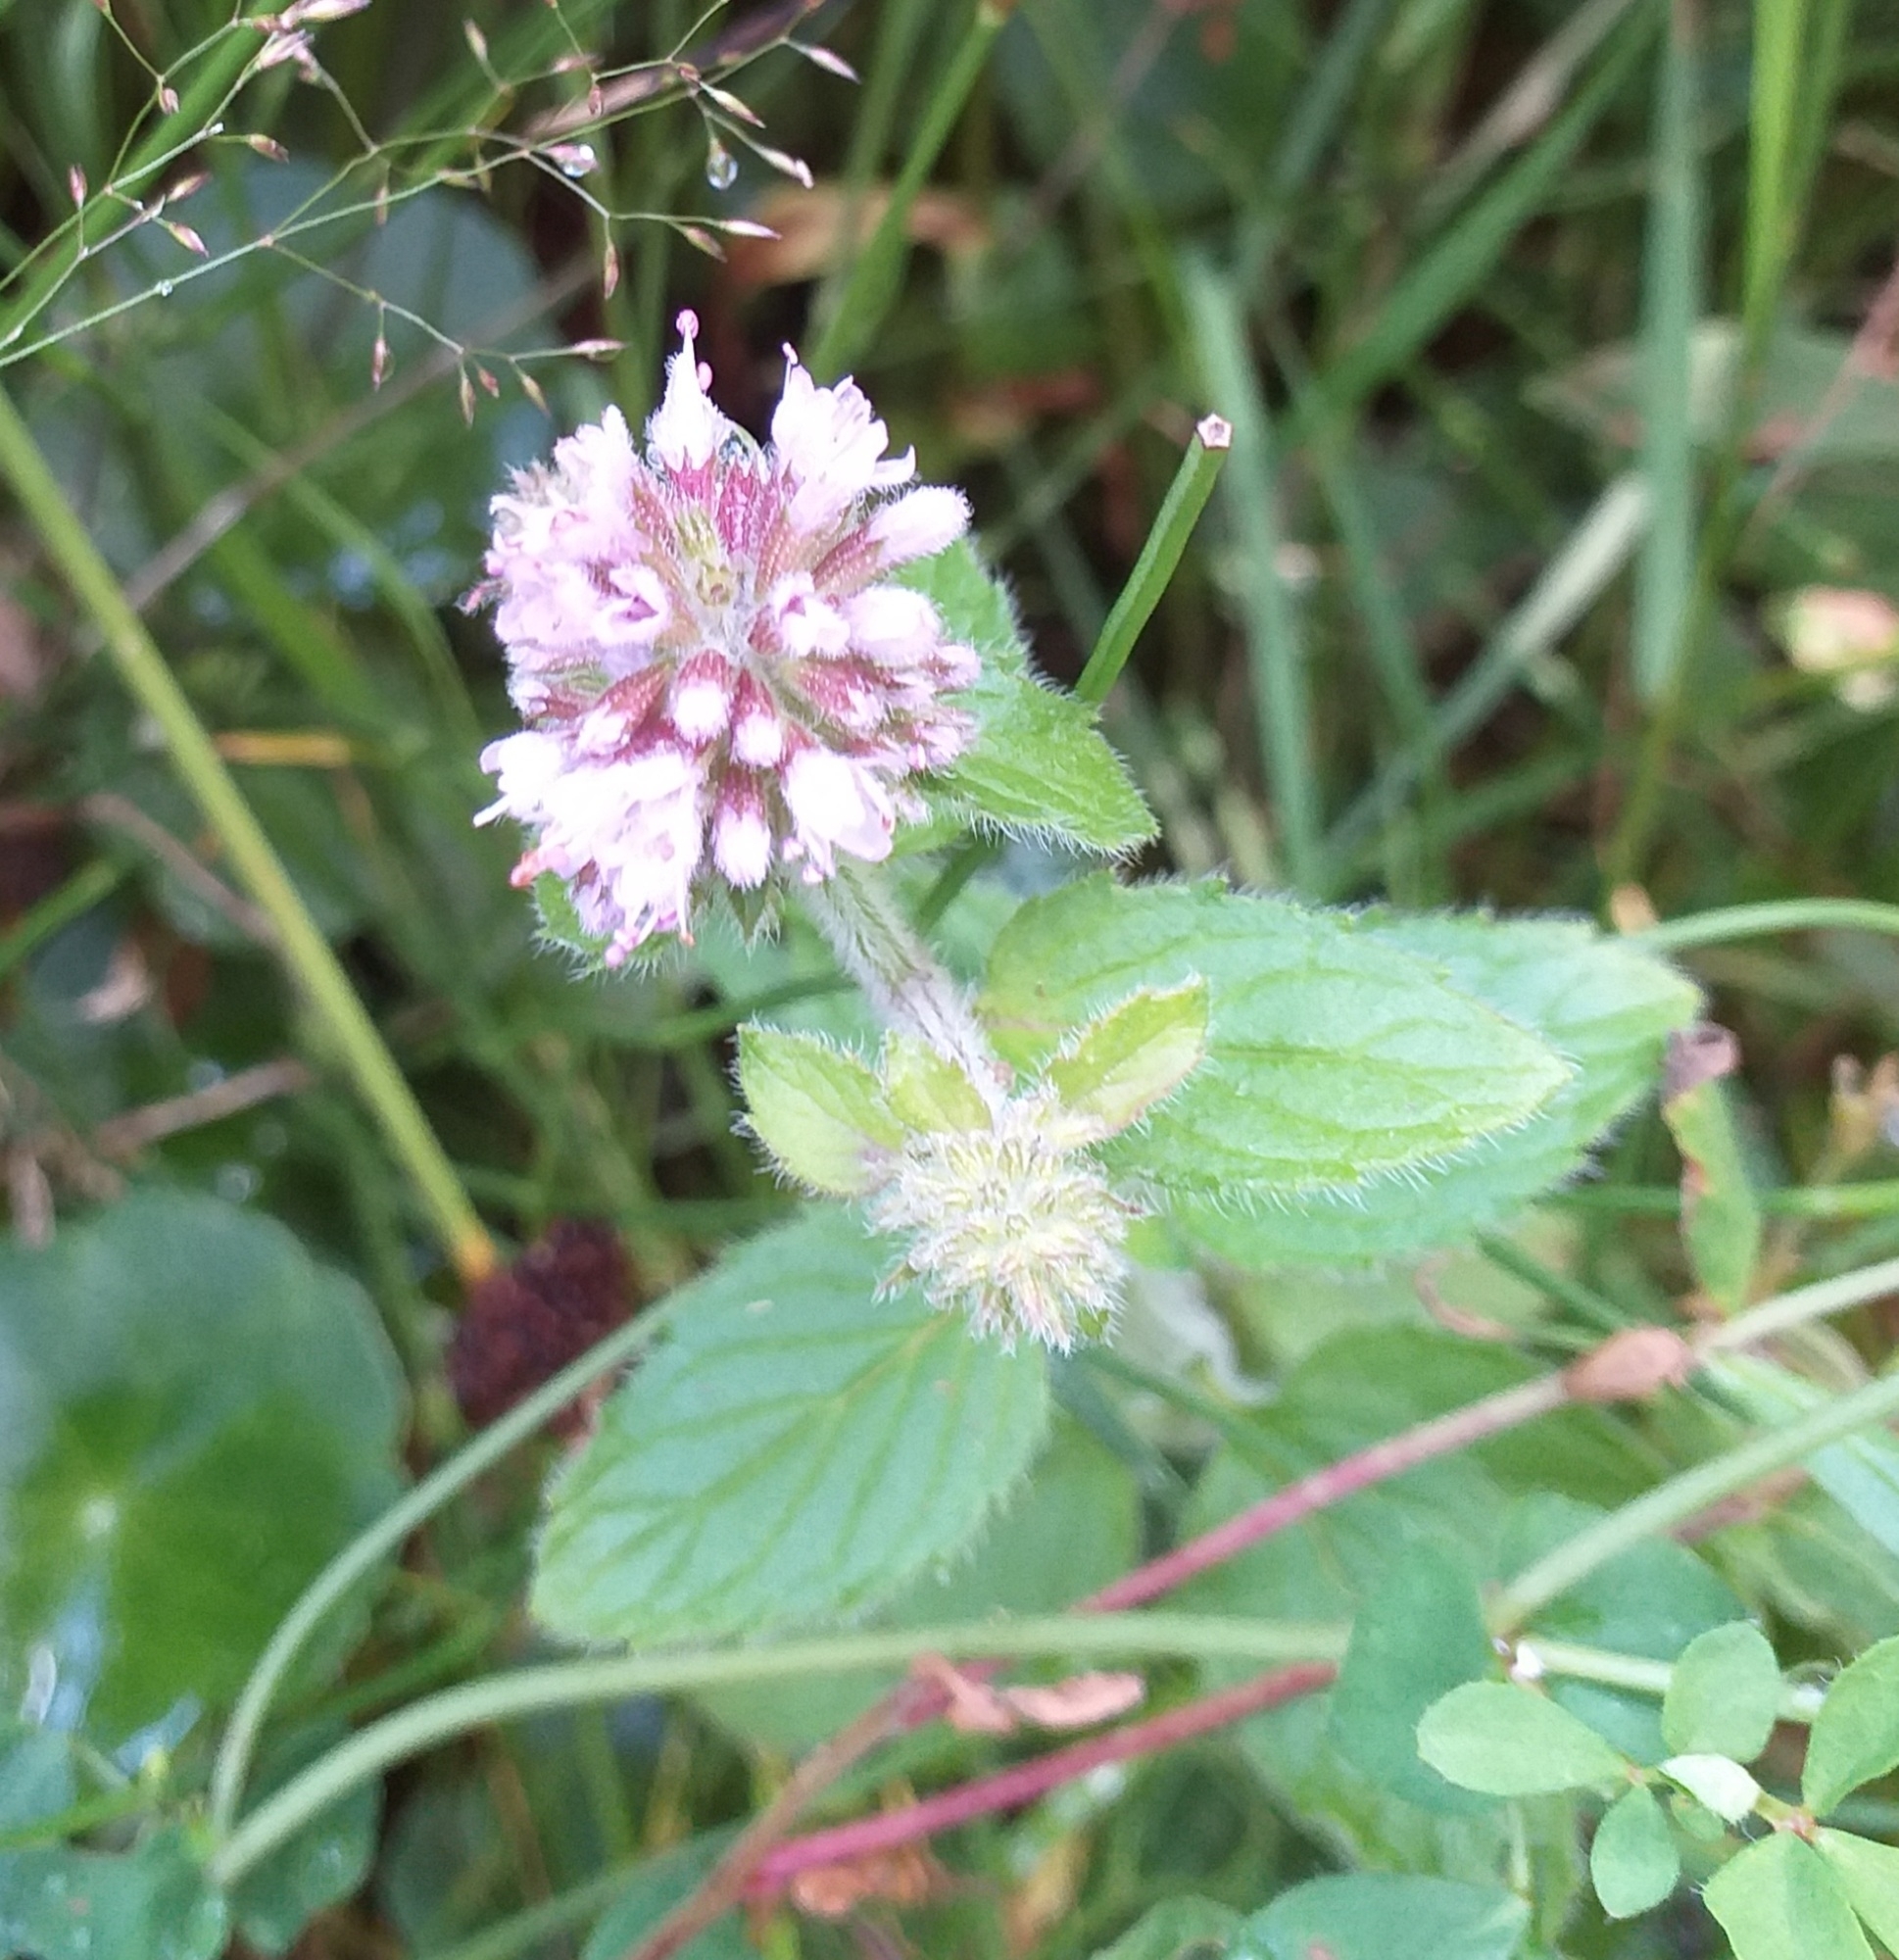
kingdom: Plantae
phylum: Tracheophyta
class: Magnoliopsida
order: Lamiales
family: Lamiaceae
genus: Mentha
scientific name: Mentha aquatica
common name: Water mint
